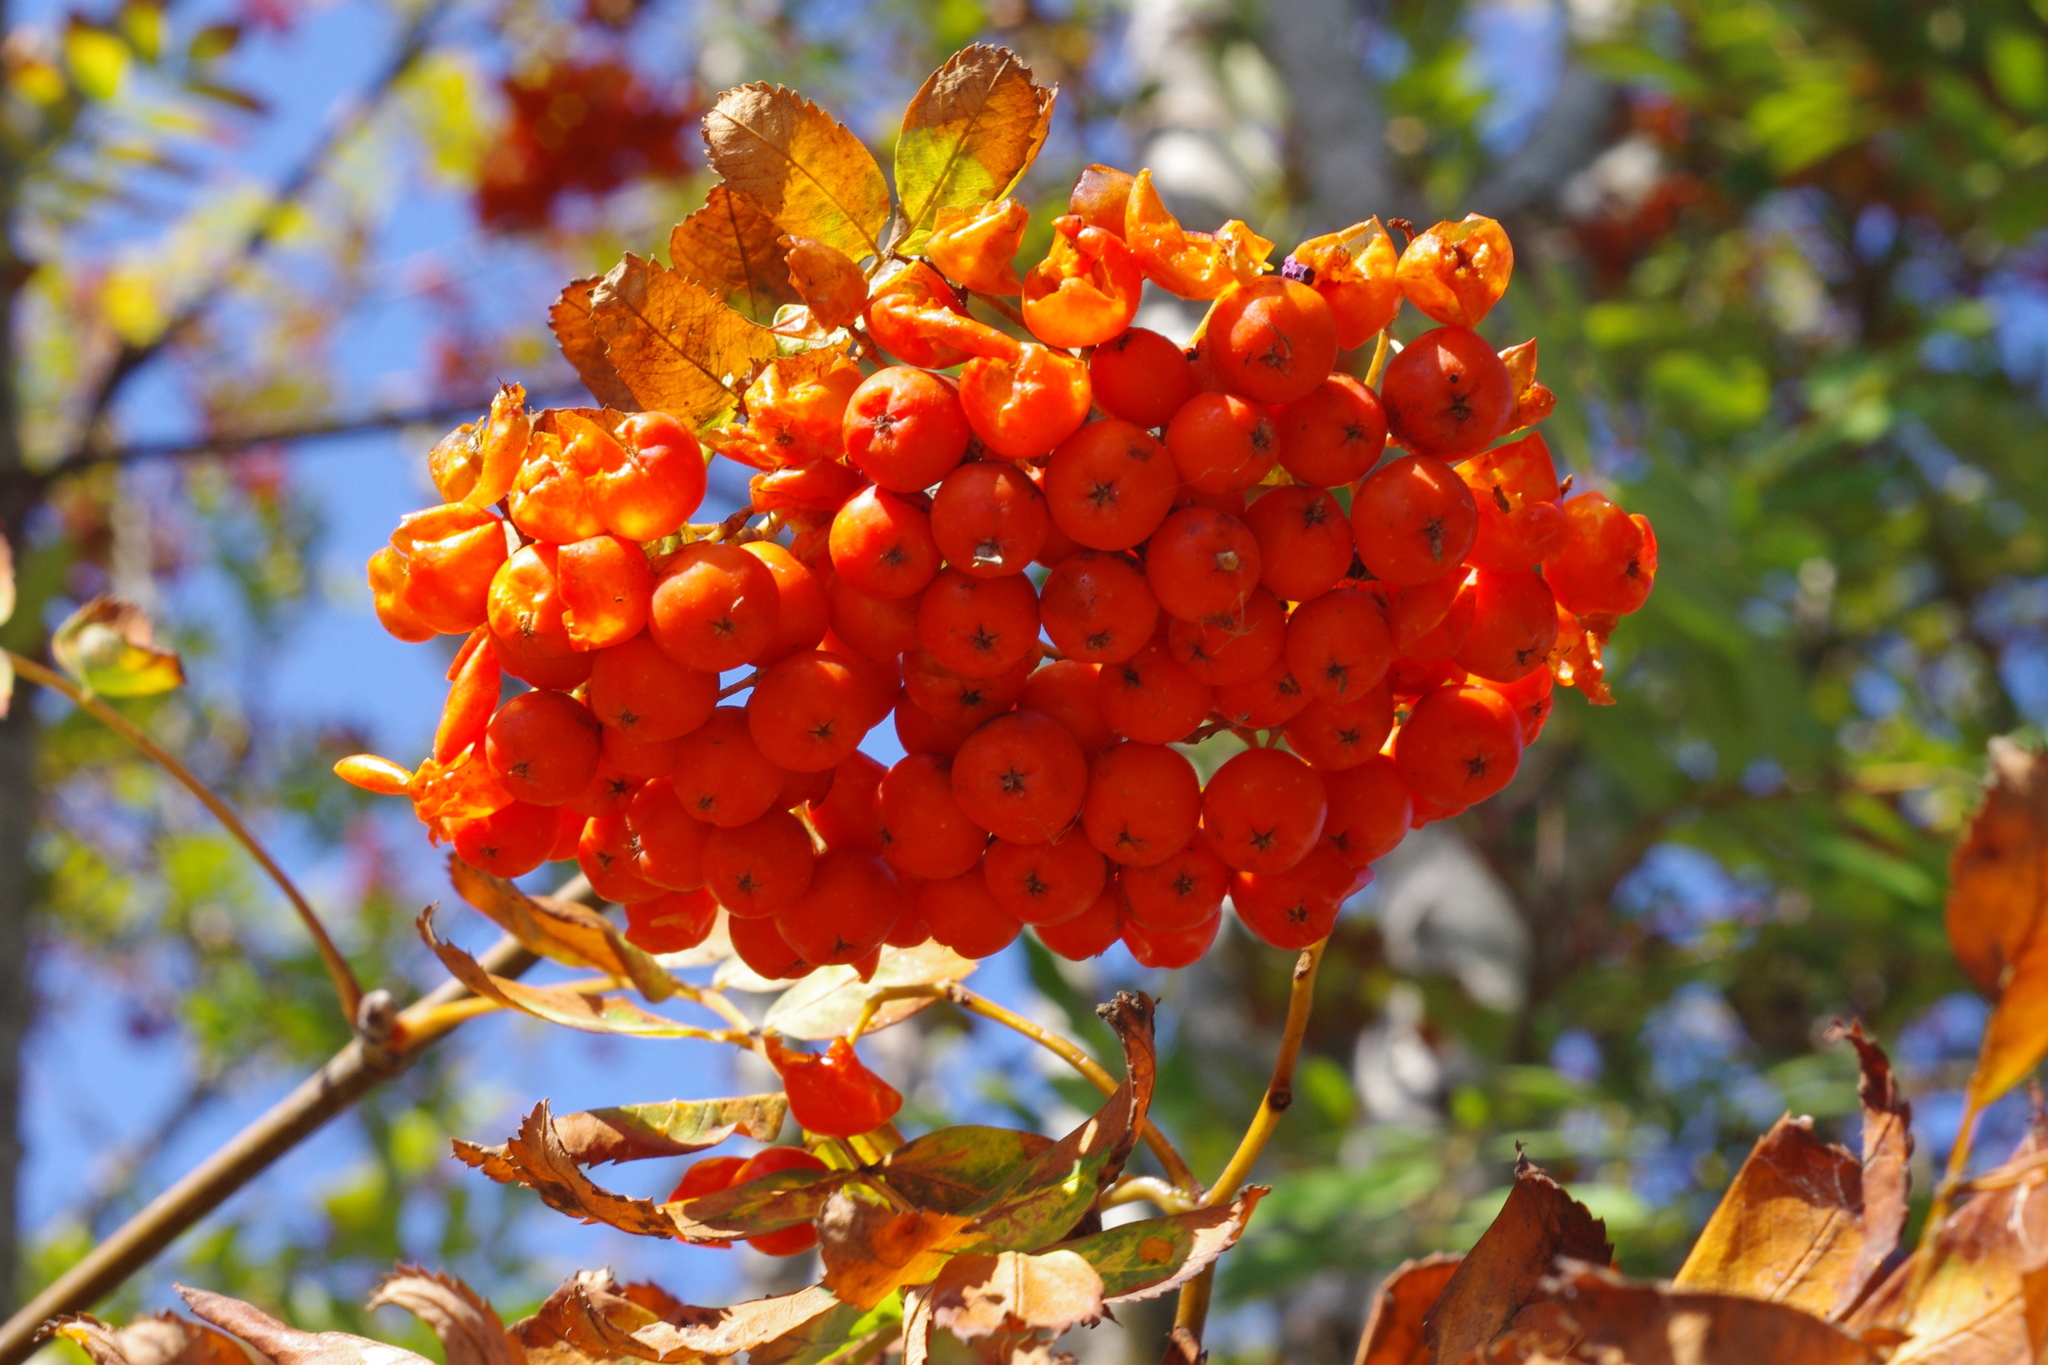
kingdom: Plantae
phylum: Tracheophyta
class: Magnoliopsida
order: Rosales
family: Rosaceae
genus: Sorbus
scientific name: Sorbus aucuparia
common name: Rowan
